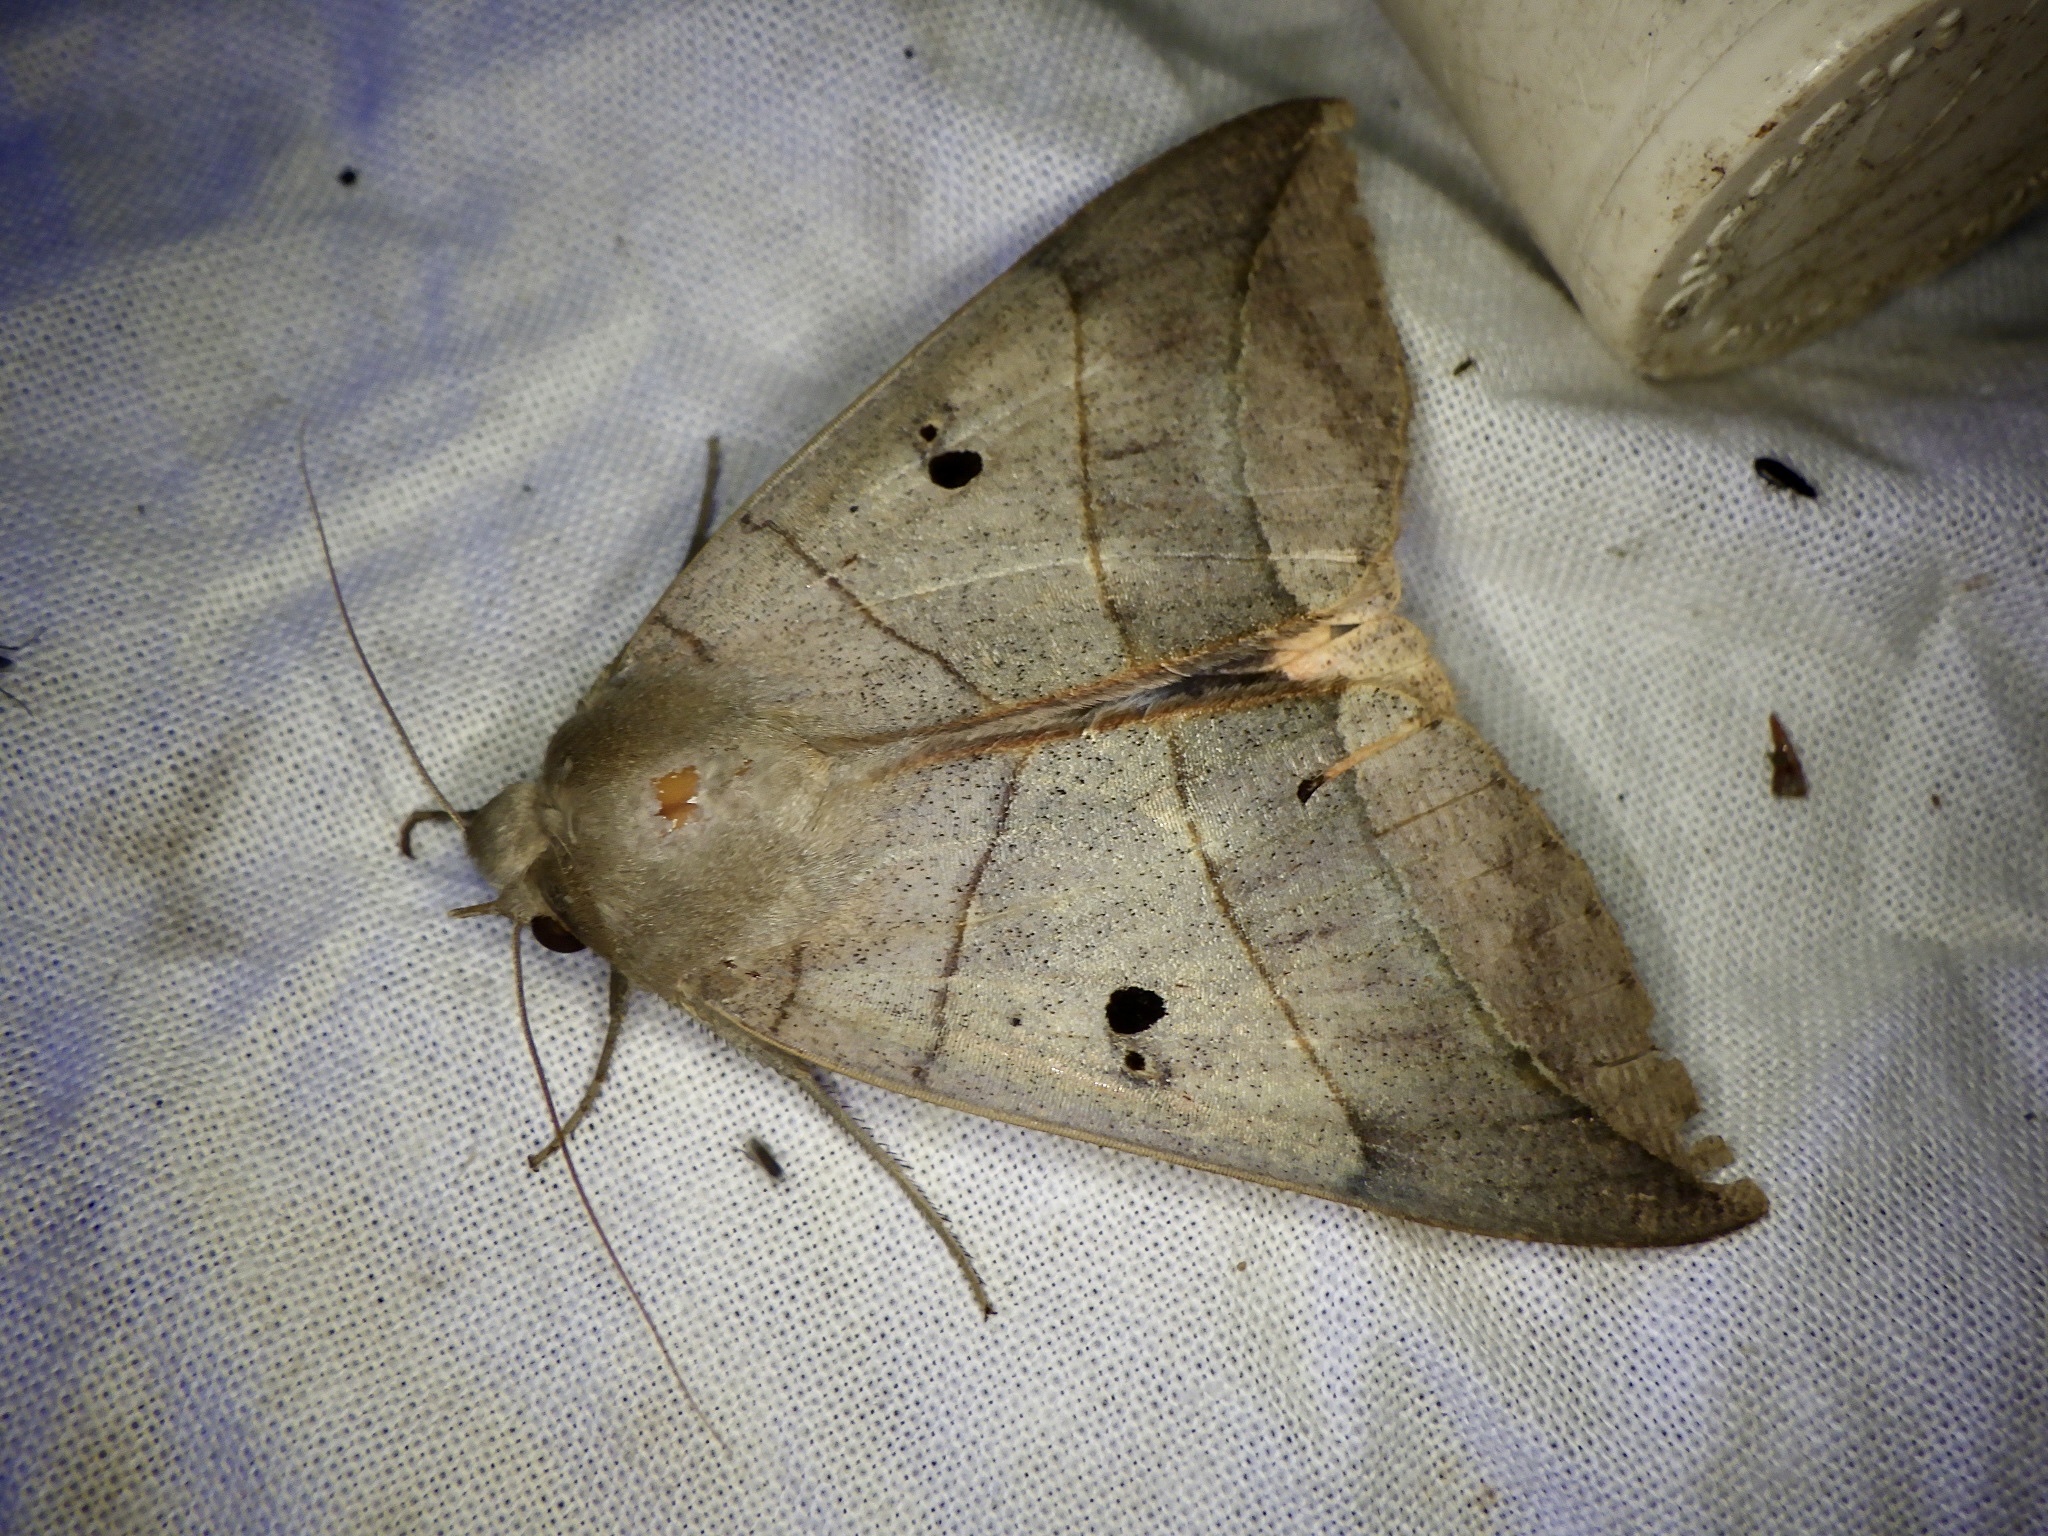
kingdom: Animalia
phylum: Arthropoda
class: Insecta
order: Lepidoptera
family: Erebidae
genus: Thyas
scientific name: Thyas juno
